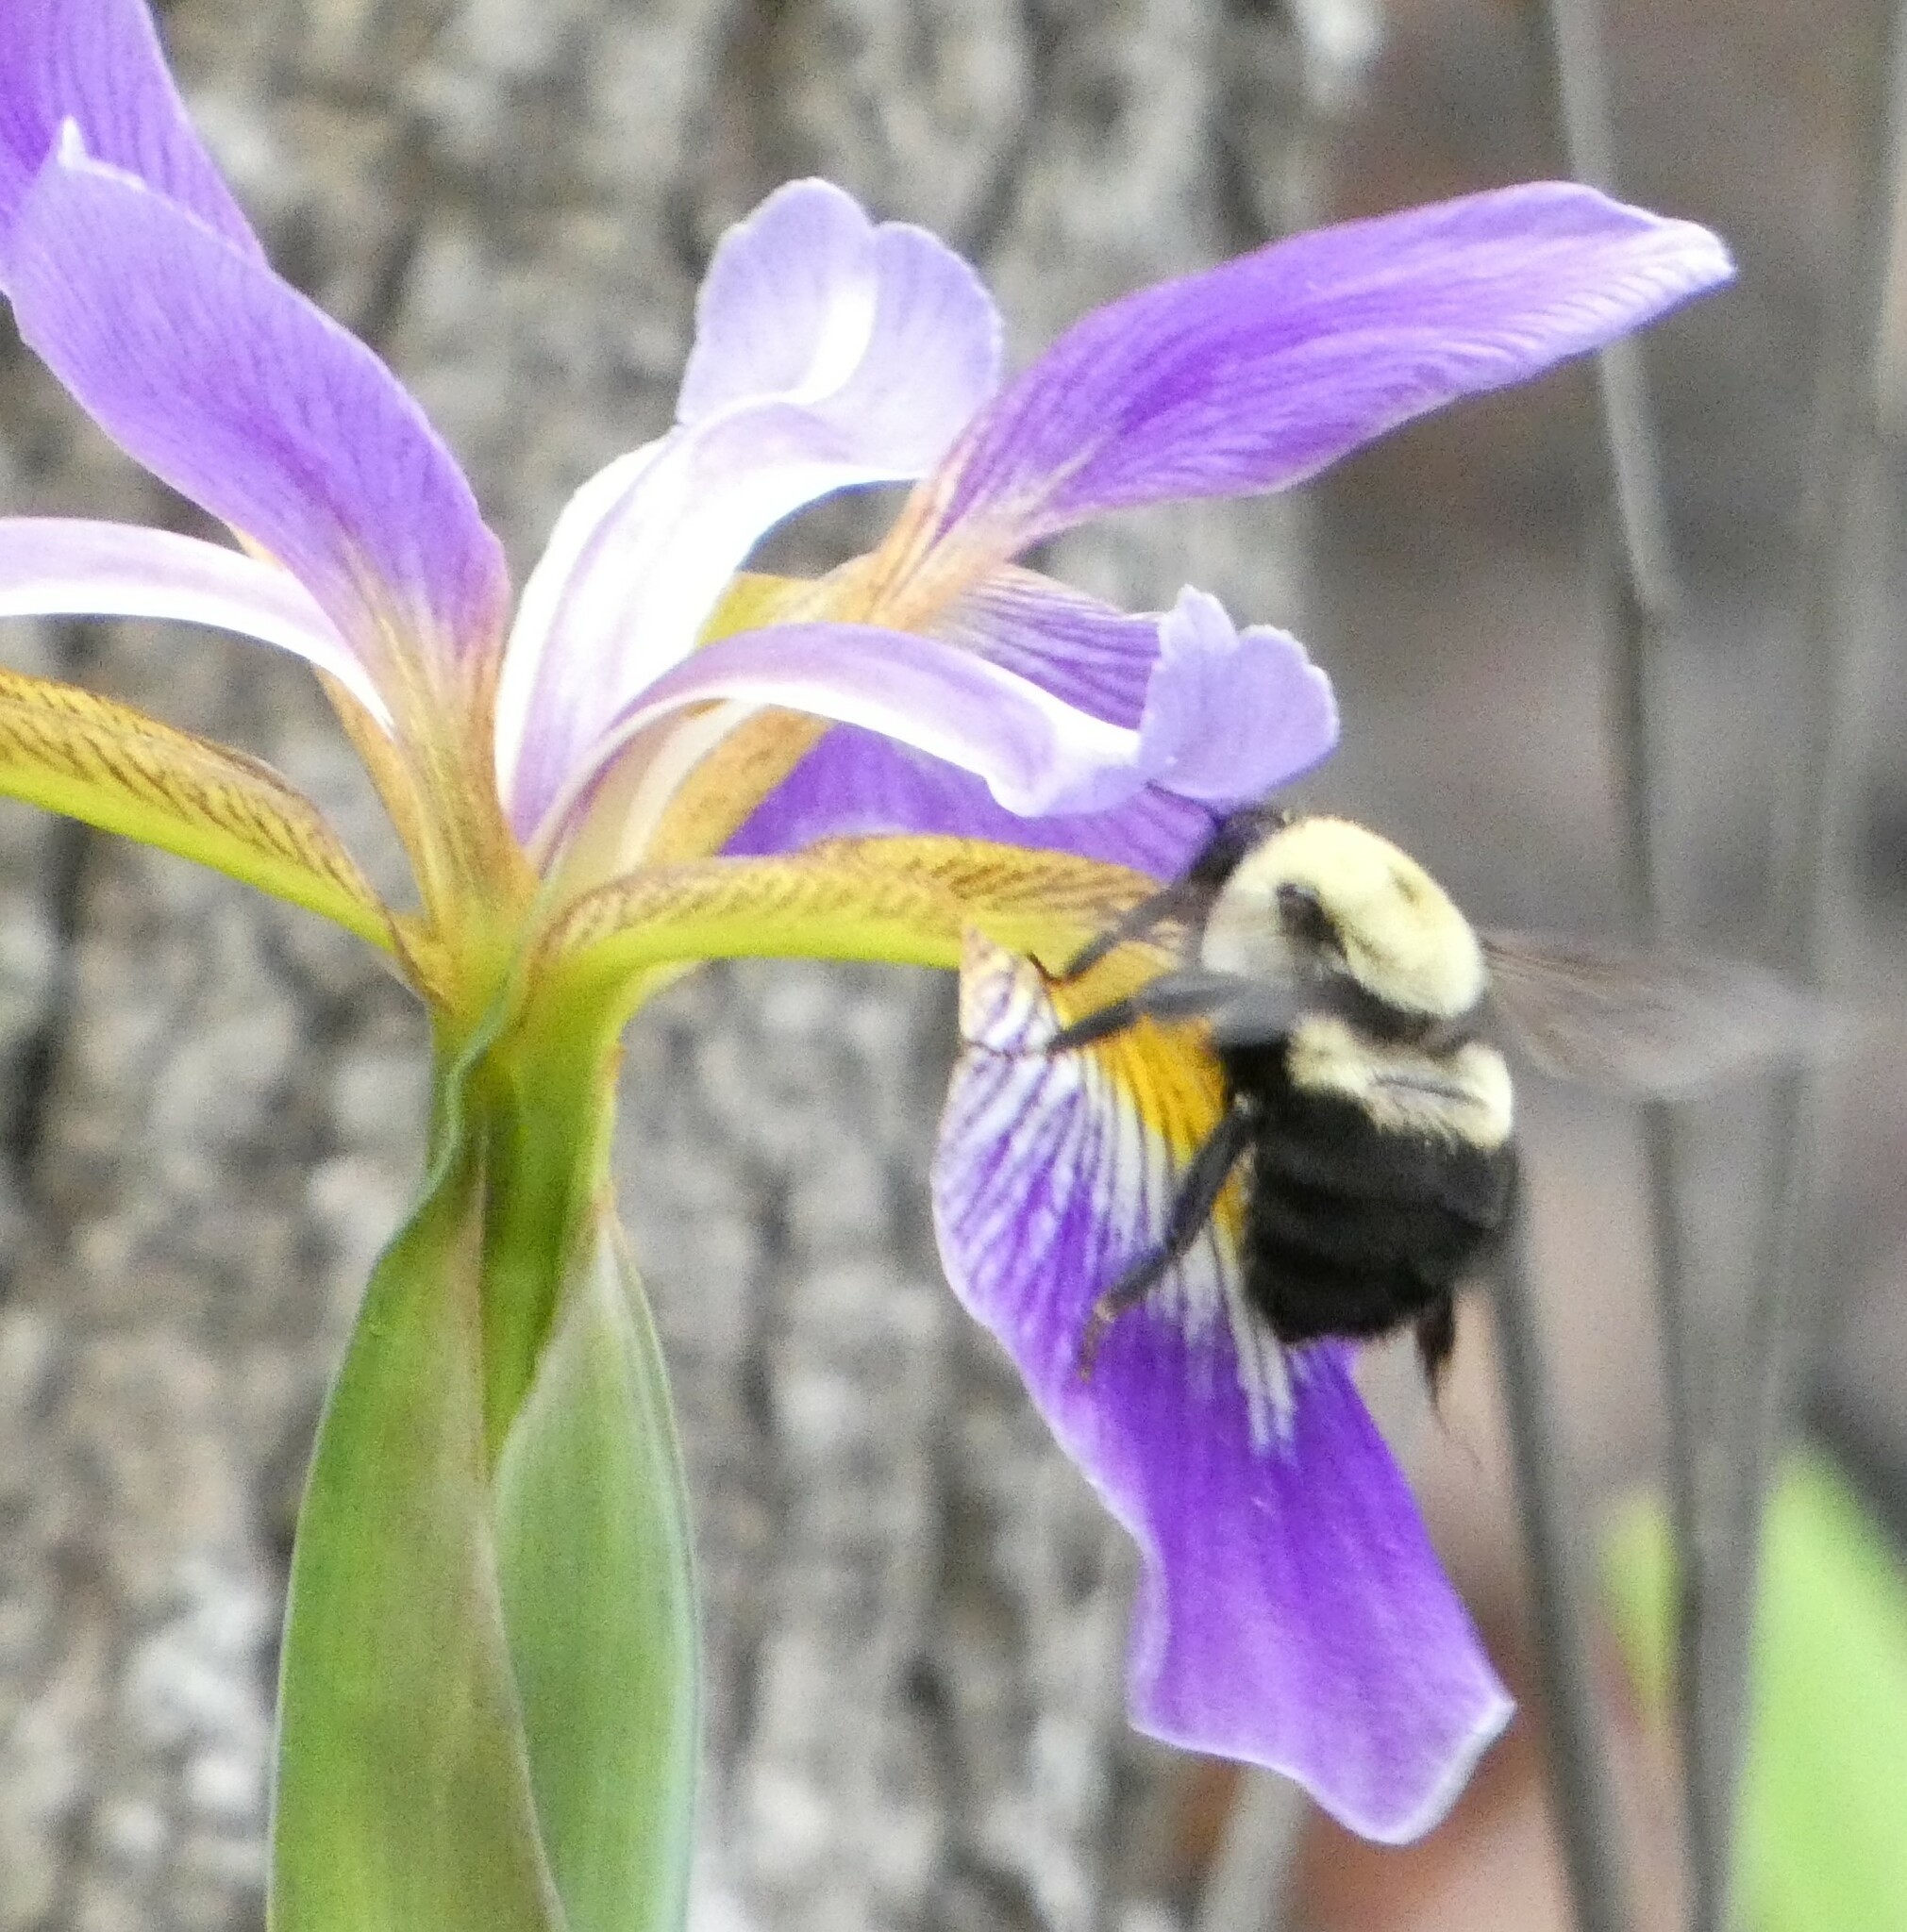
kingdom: Animalia
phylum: Arthropoda
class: Insecta
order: Hymenoptera
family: Apidae
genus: Bombus
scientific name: Bombus griseocollis
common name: Brown-belted bumble bee
